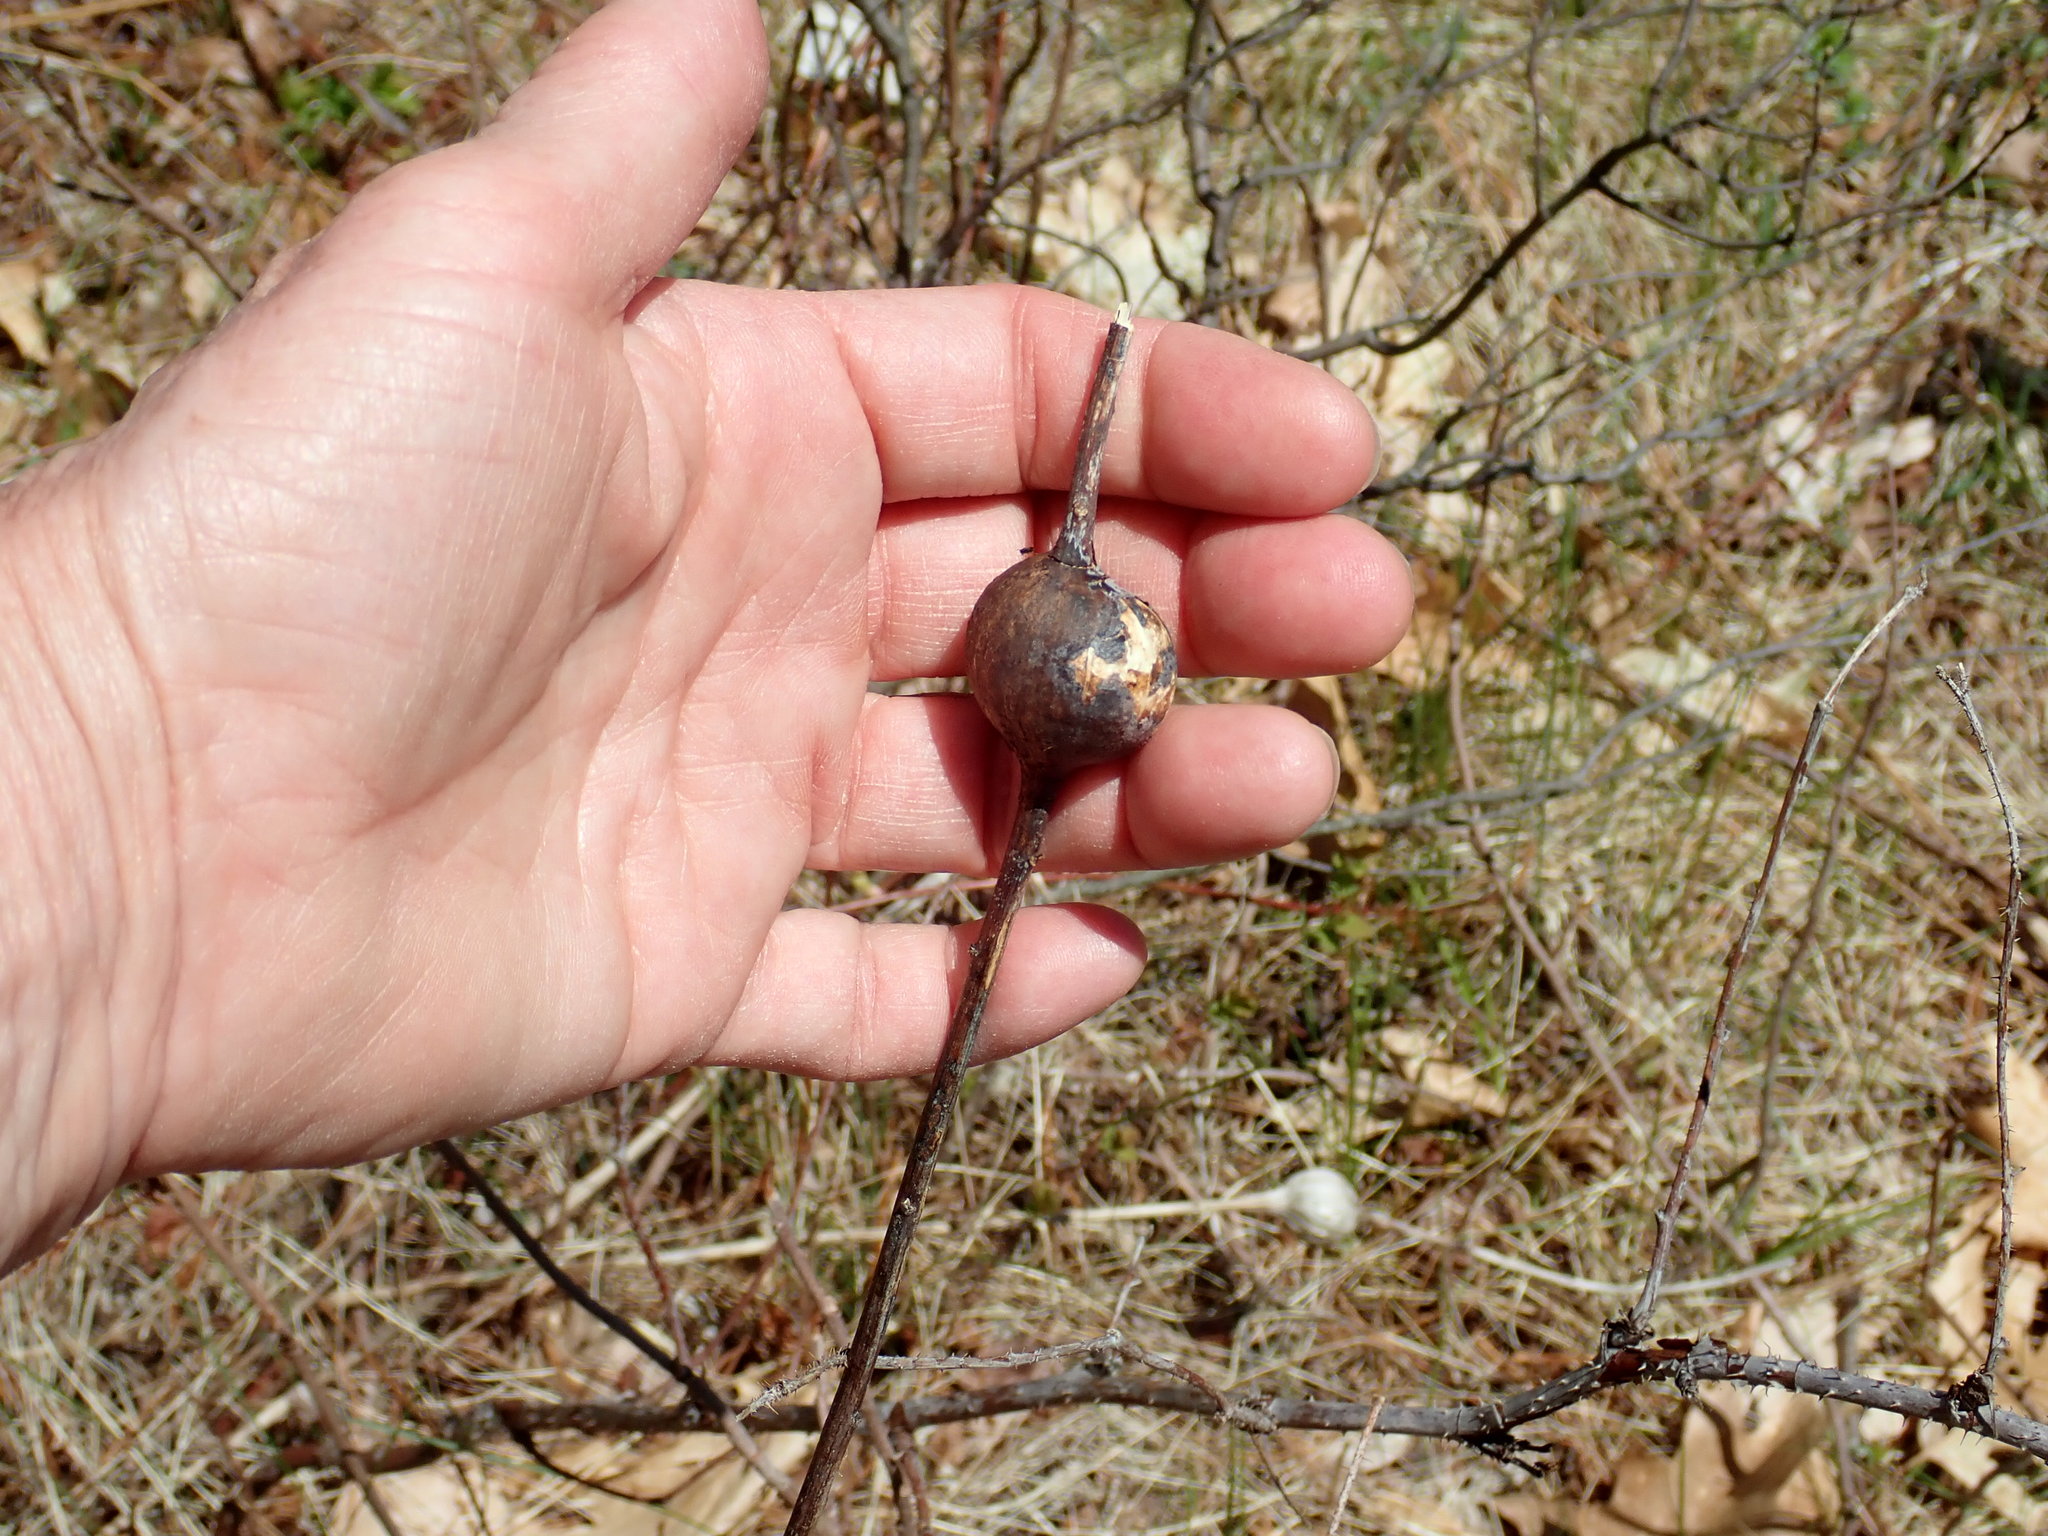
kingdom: Animalia
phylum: Arthropoda
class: Insecta
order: Diptera
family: Tephritidae
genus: Eurosta
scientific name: Eurosta solidaginis
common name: Goldenrod gall fly
